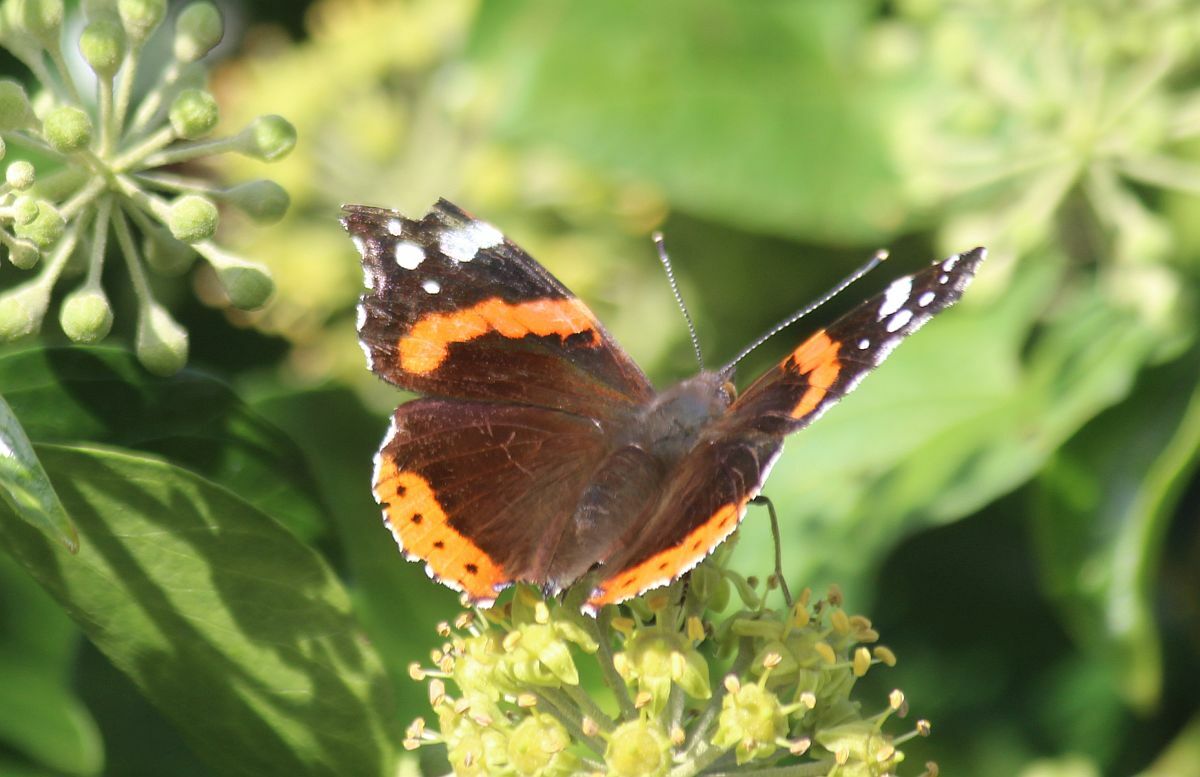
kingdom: Animalia
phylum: Arthropoda
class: Insecta
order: Lepidoptera
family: Nymphalidae
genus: Vanessa
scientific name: Vanessa atalanta
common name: Red admiral
